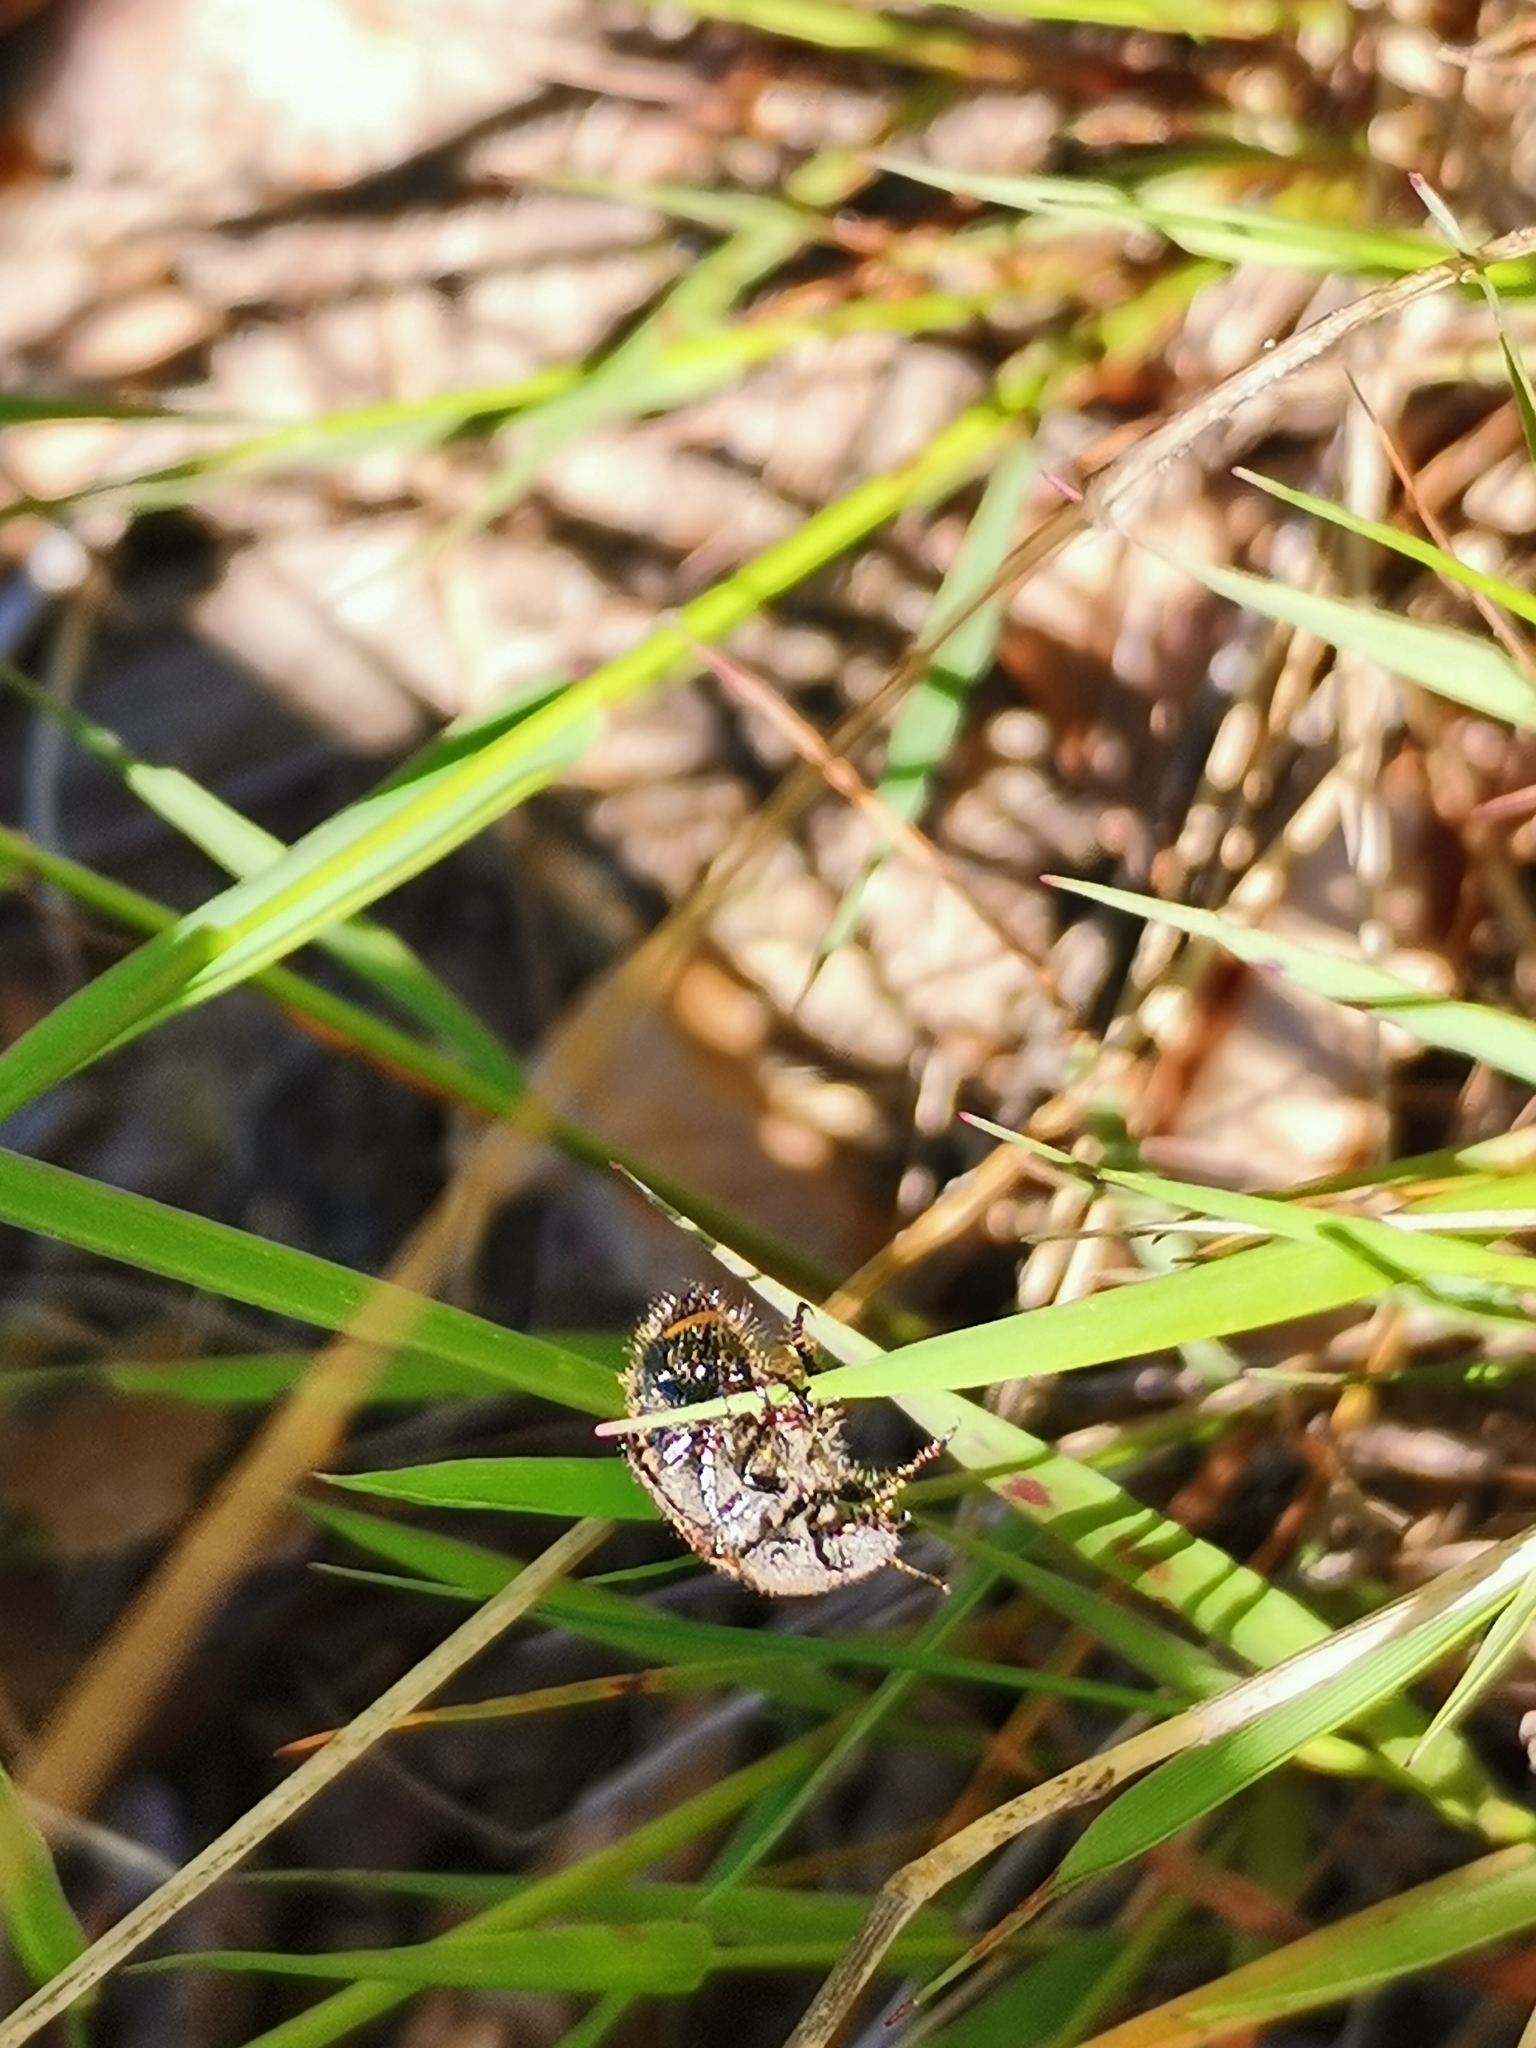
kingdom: Animalia
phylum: Arthropoda
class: Insecta
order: Coleoptera
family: Scarabaeidae
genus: Phyllopertha
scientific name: Phyllopertha horticola
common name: Garden chafer
